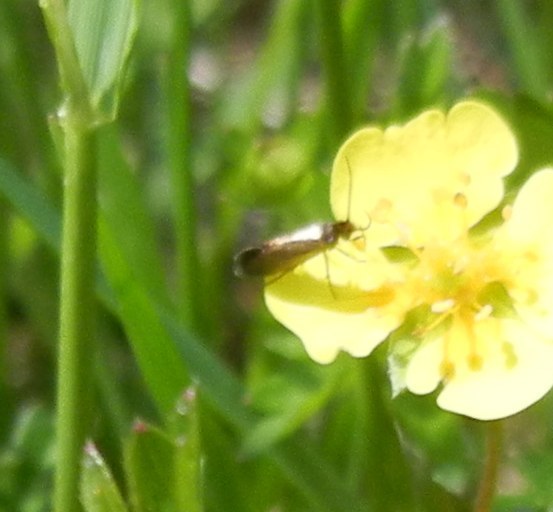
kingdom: Animalia
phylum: Arthropoda
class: Insecta
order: Lepidoptera
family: Micropterigidae
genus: Micropterix
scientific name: Micropterix calthella
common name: Plain gold
